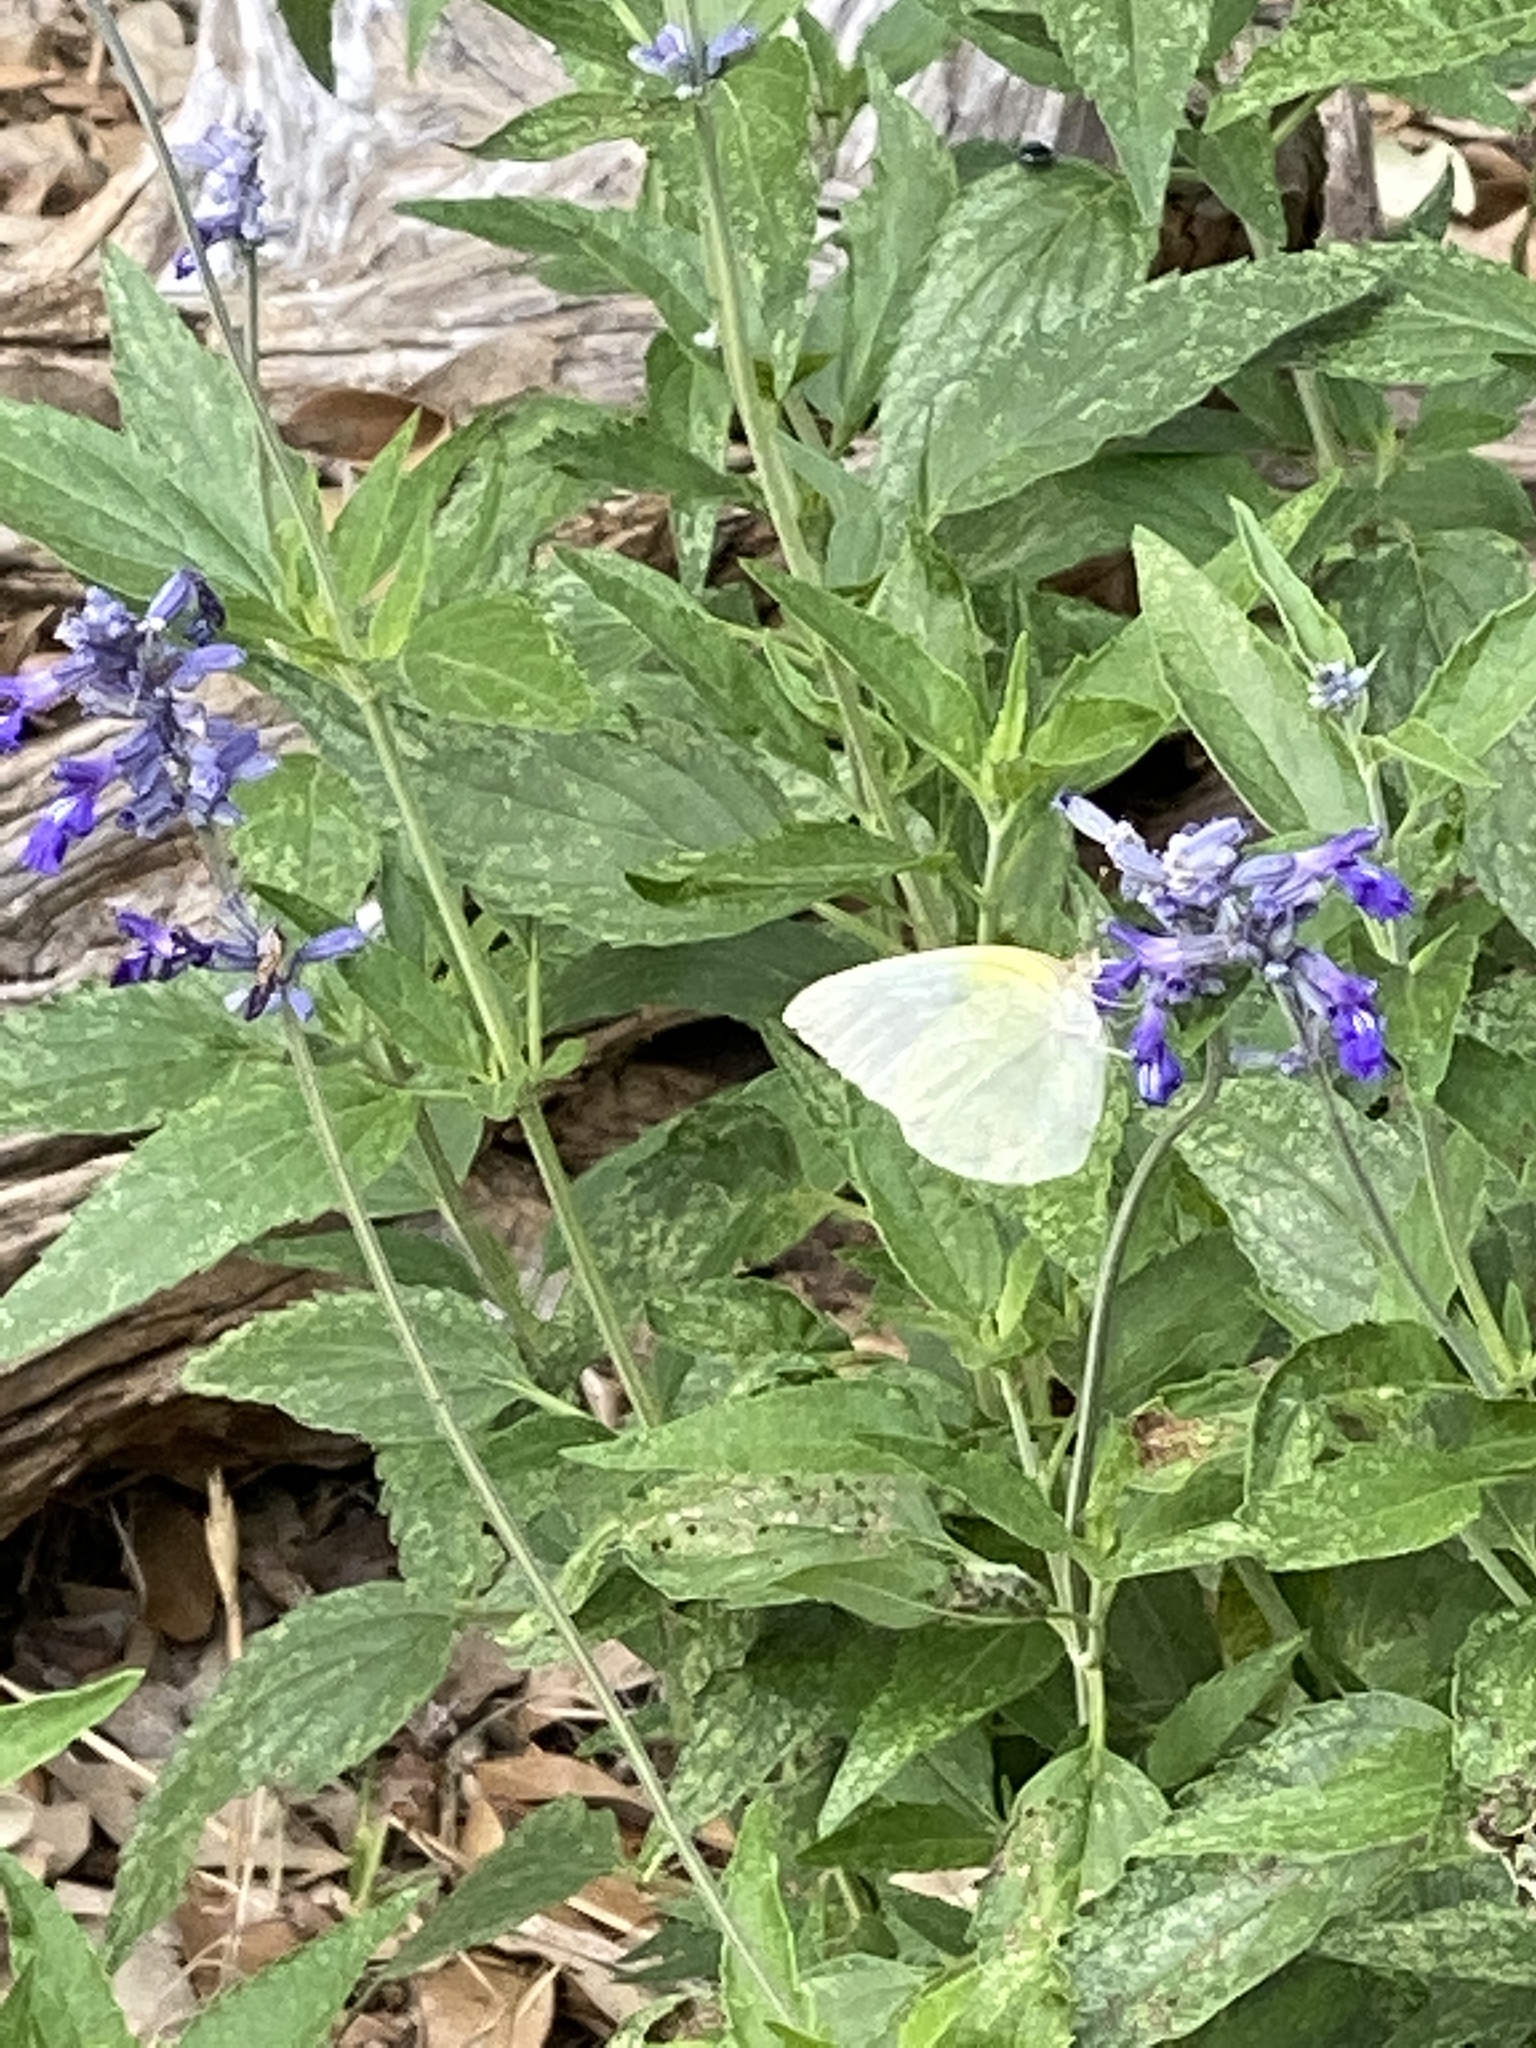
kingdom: Animalia
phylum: Arthropoda
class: Insecta
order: Lepidoptera
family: Pieridae
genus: Kricogonia
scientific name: Kricogonia lyside
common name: Guayacan sulphur,
